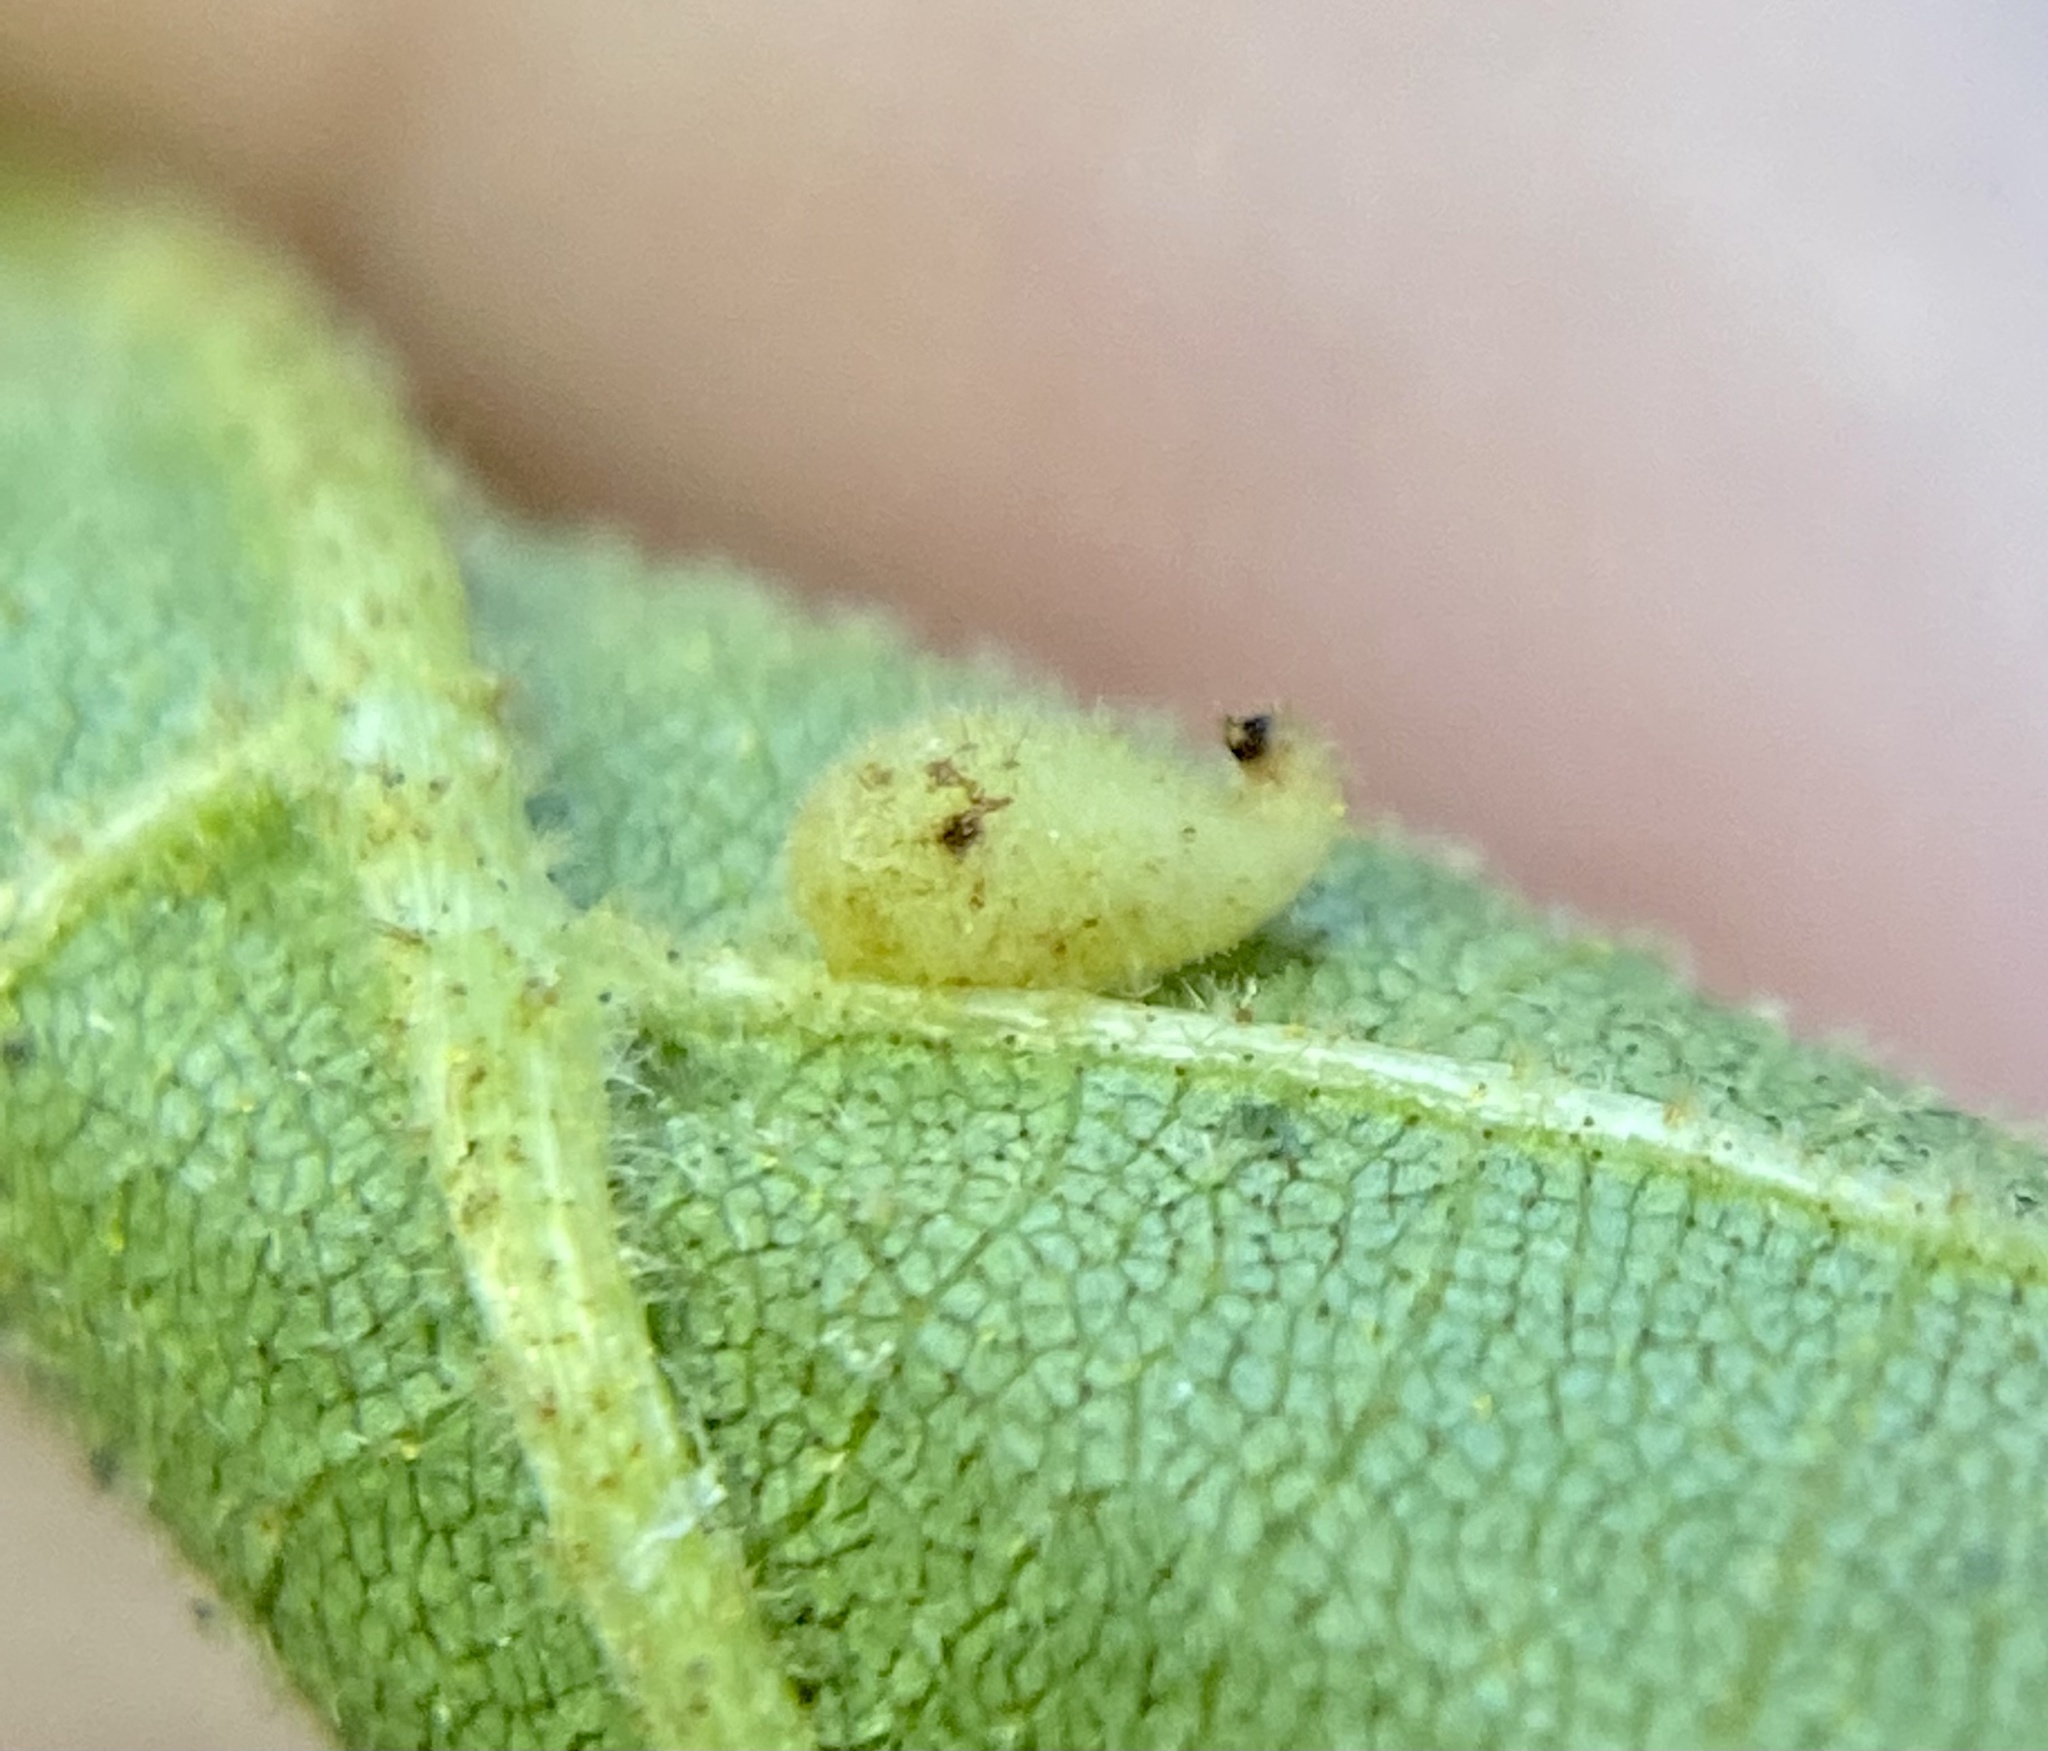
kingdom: Animalia
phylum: Arthropoda
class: Insecta
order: Diptera
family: Cecidomyiidae
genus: Caryomyia
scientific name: Caryomyia eumaris
